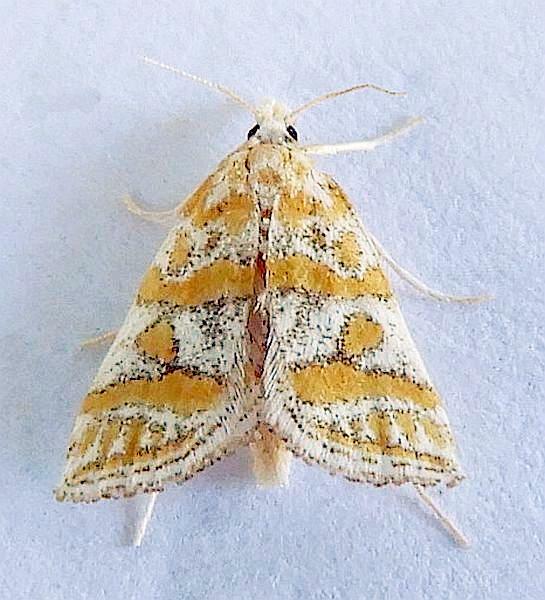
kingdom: Animalia
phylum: Arthropoda
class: Insecta
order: Lepidoptera
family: Crambidae
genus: Leptosteges
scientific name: Leptosteges flavifascialis
